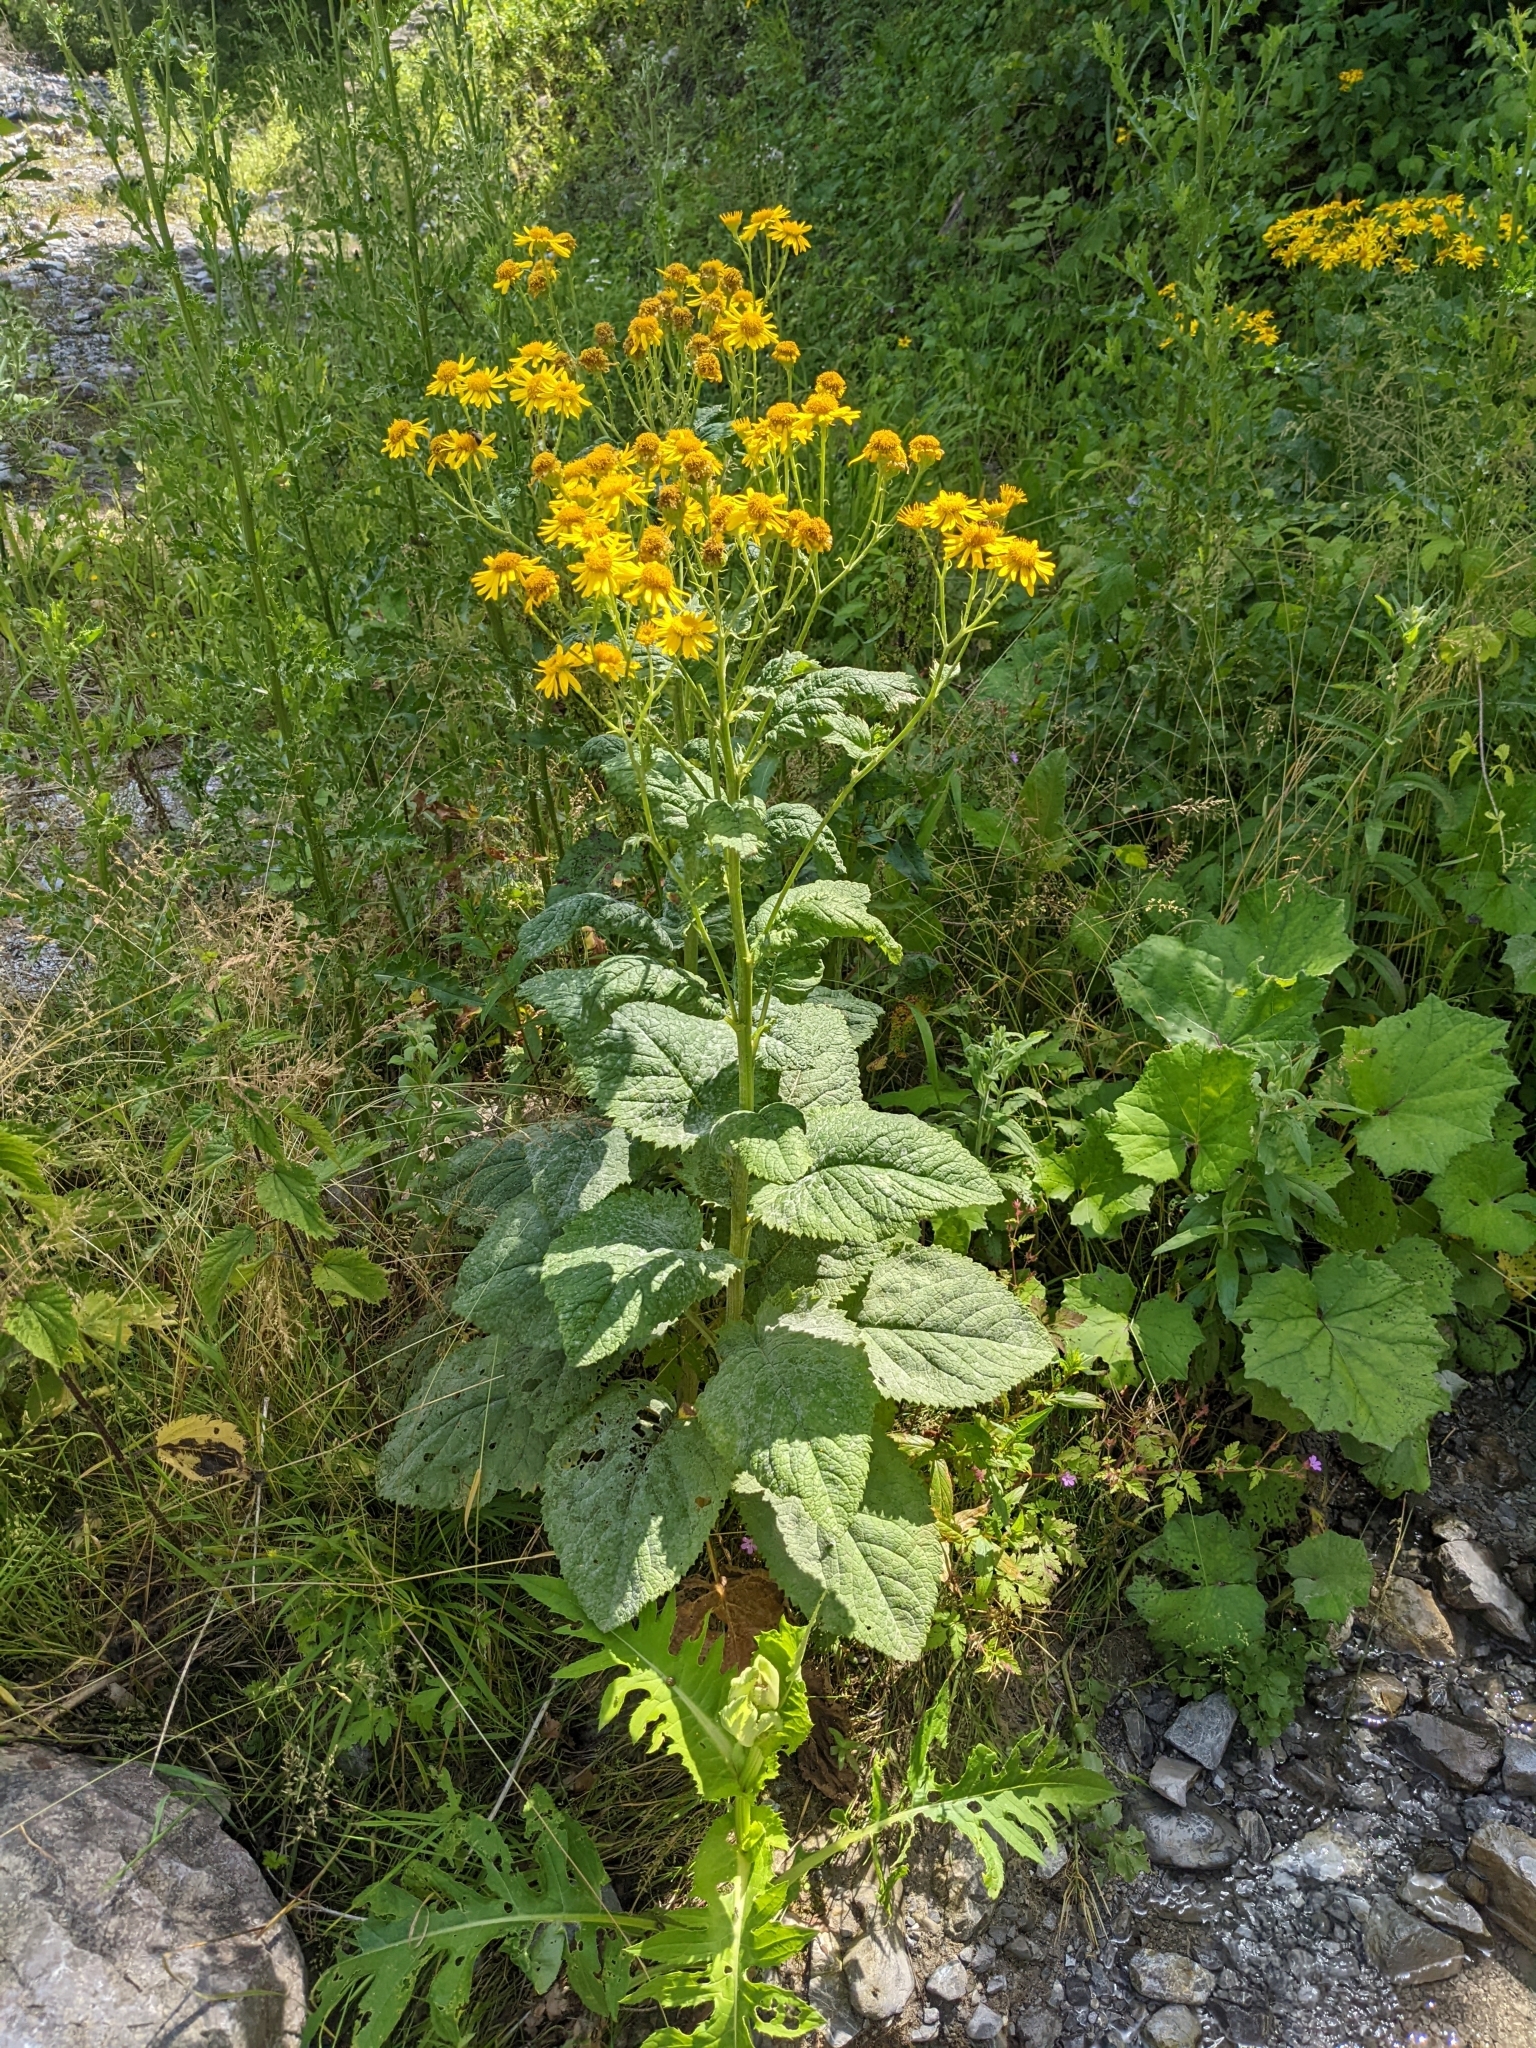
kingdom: Plantae
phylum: Tracheophyta
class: Magnoliopsida
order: Asterales
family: Asteraceae
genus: Jacobaea
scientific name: Jacobaea alpina
